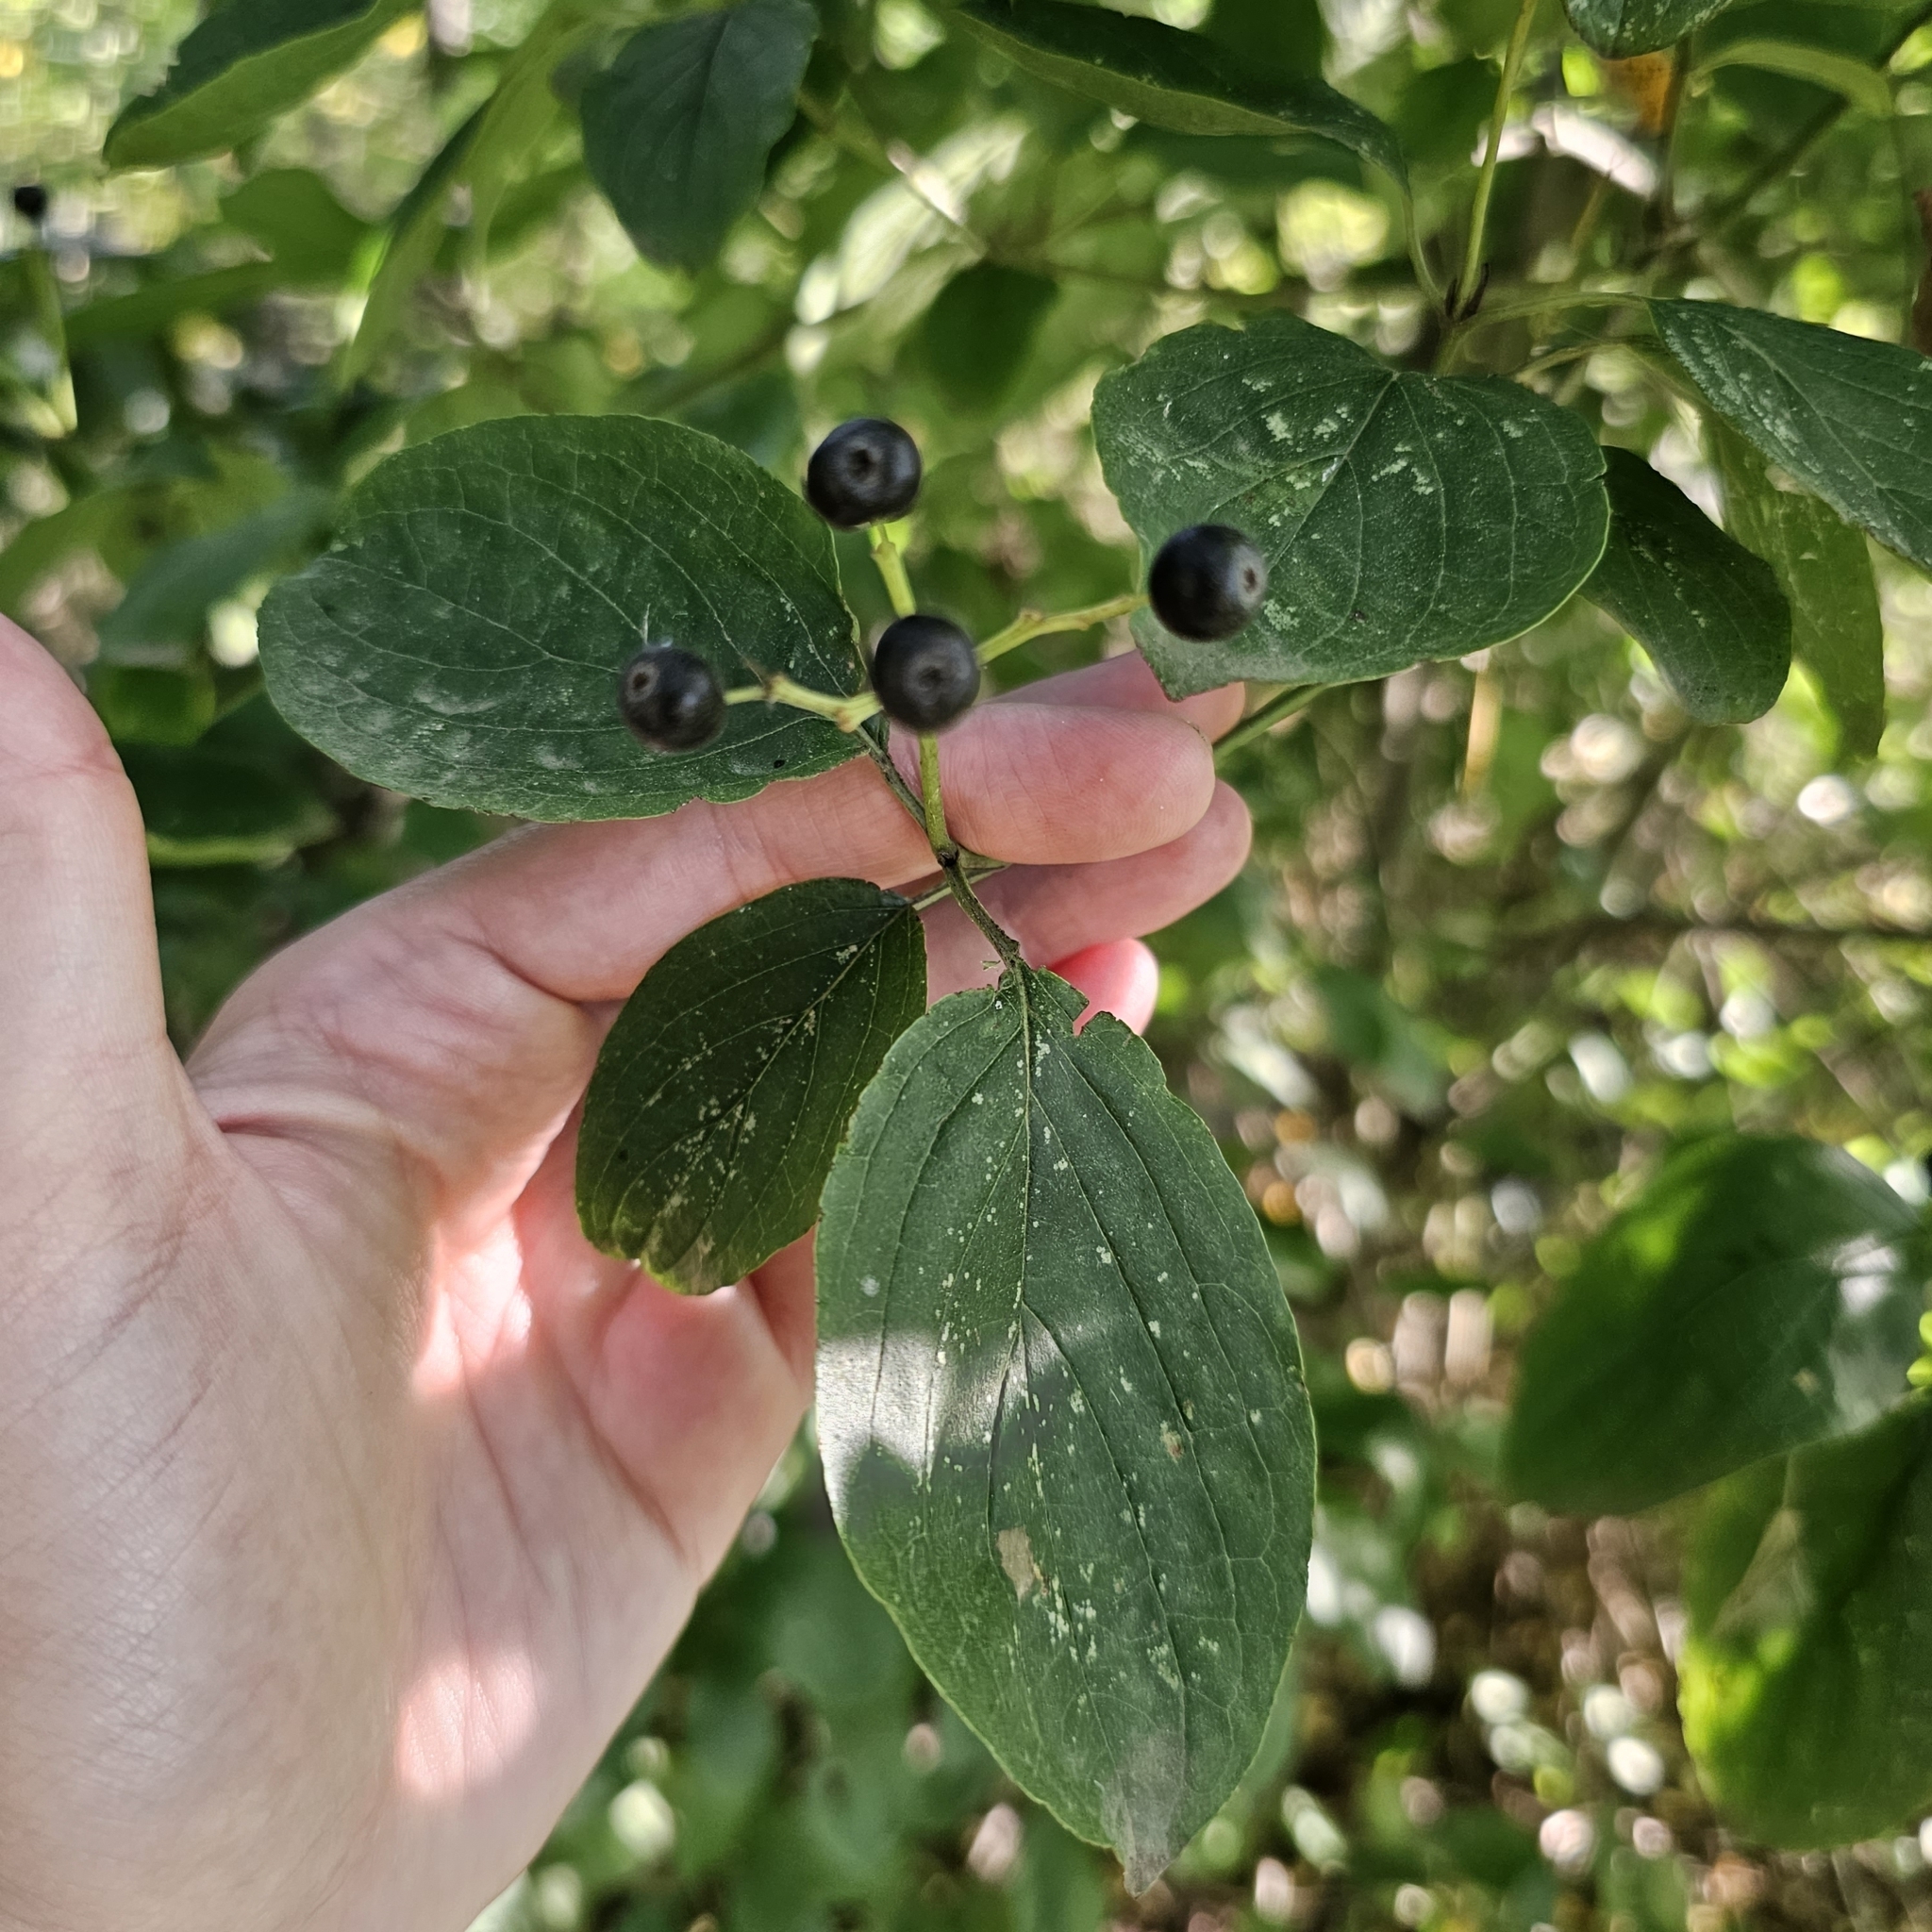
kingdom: Plantae
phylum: Tracheophyta
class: Magnoliopsida
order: Cornales
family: Cornaceae
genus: Cornus
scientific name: Cornus sanguinea
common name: Dogwood
